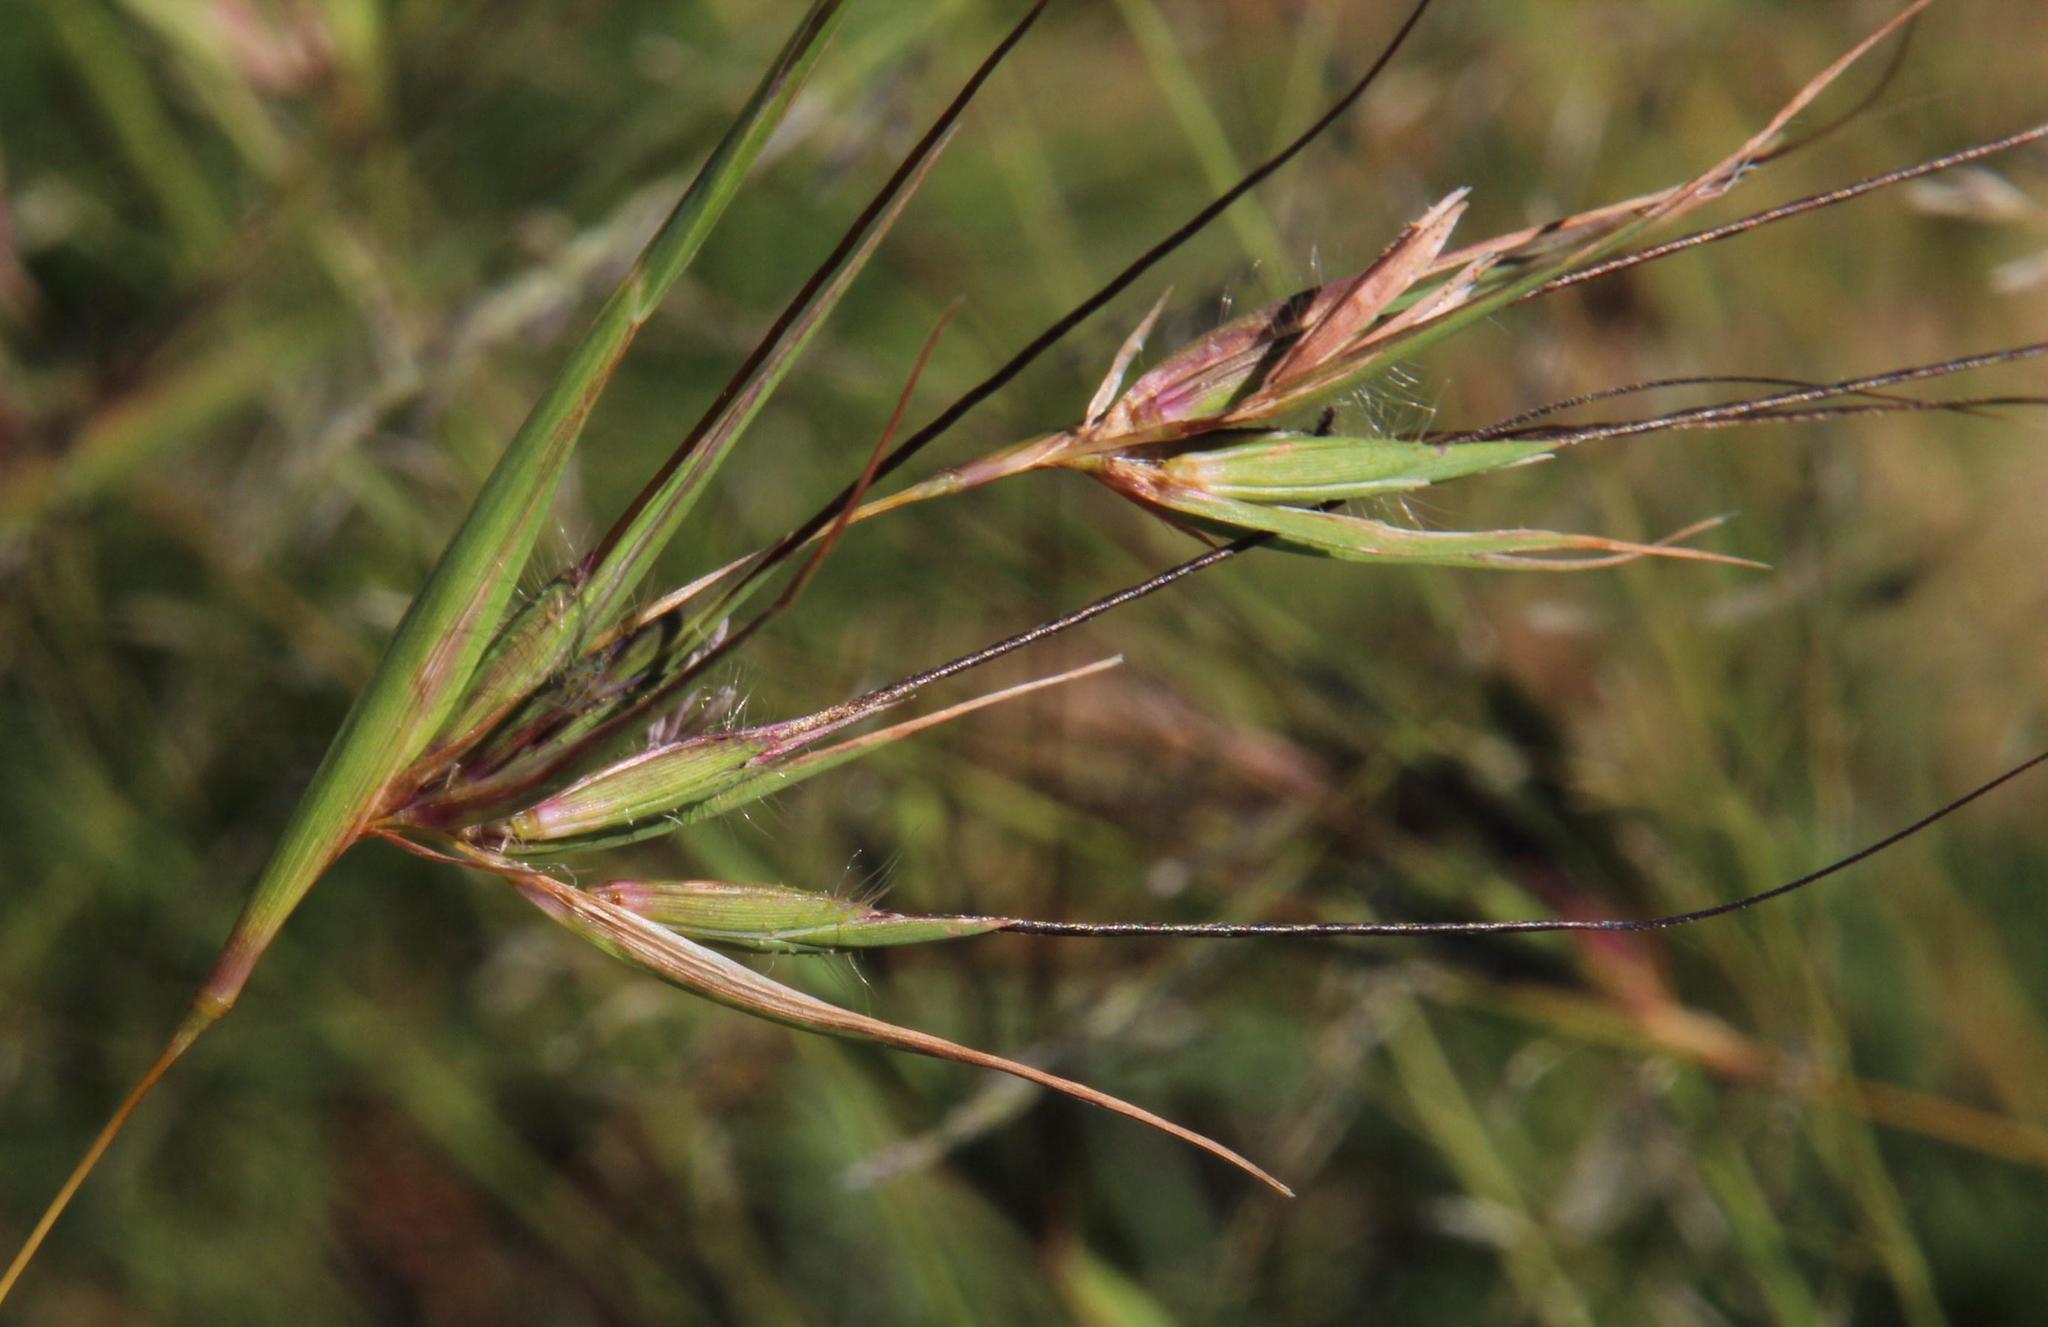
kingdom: Plantae
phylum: Tracheophyta
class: Liliopsida
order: Poales
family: Poaceae
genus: Themeda
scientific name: Themeda triandra
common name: Kangaroo grass
